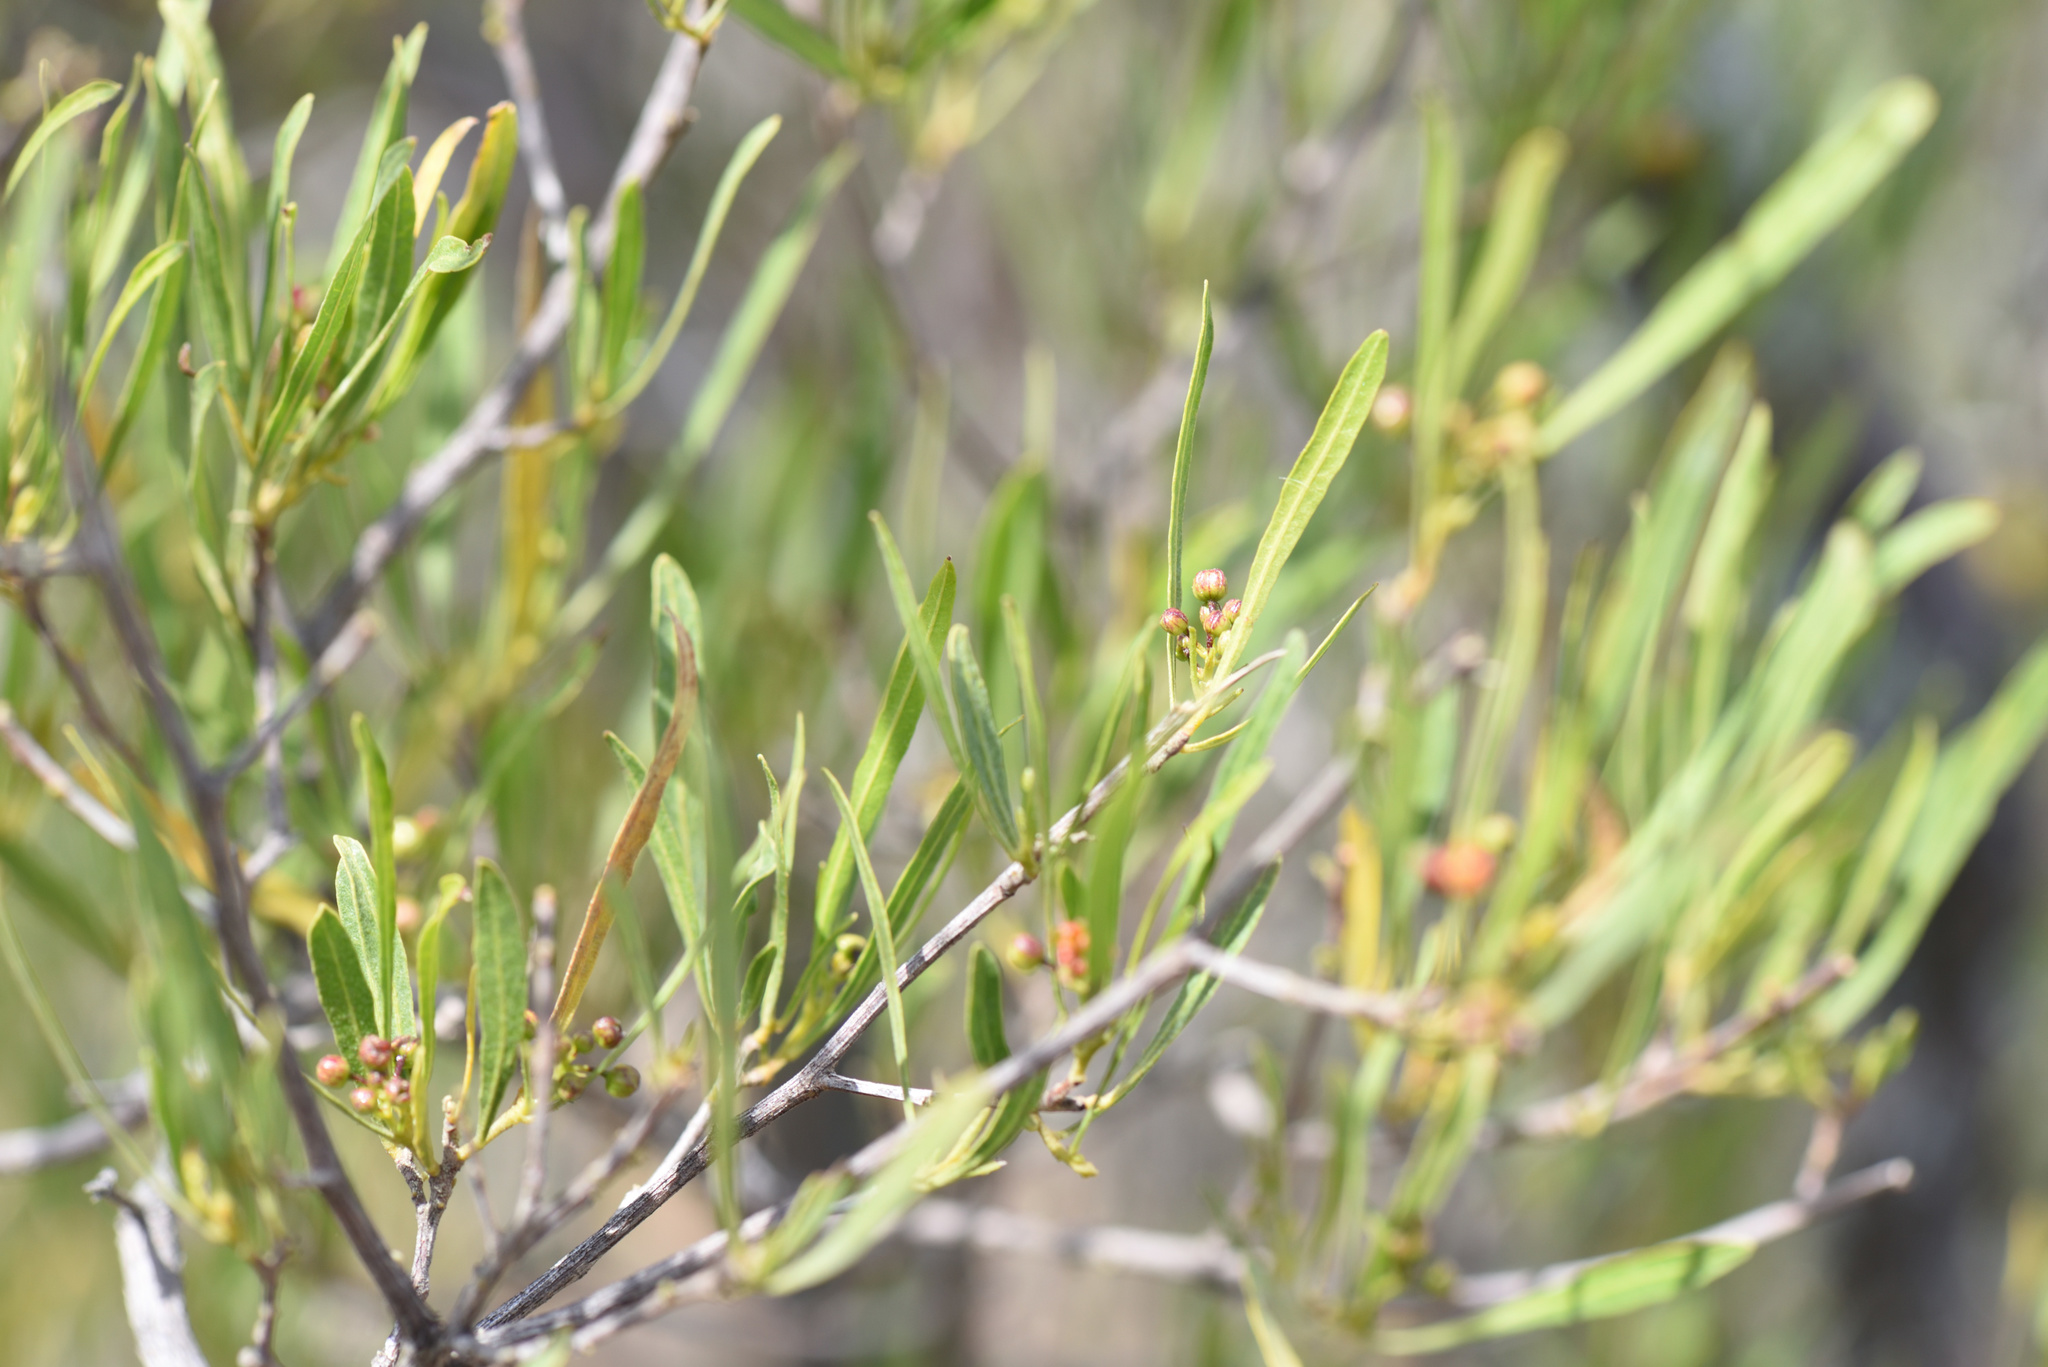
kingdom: Plantae
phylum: Tracheophyta
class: Magnoliopsida
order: Sapindales
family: Sapindaceae
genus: Dodonaea
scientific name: Dodonaea viscosa
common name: Hopbush
